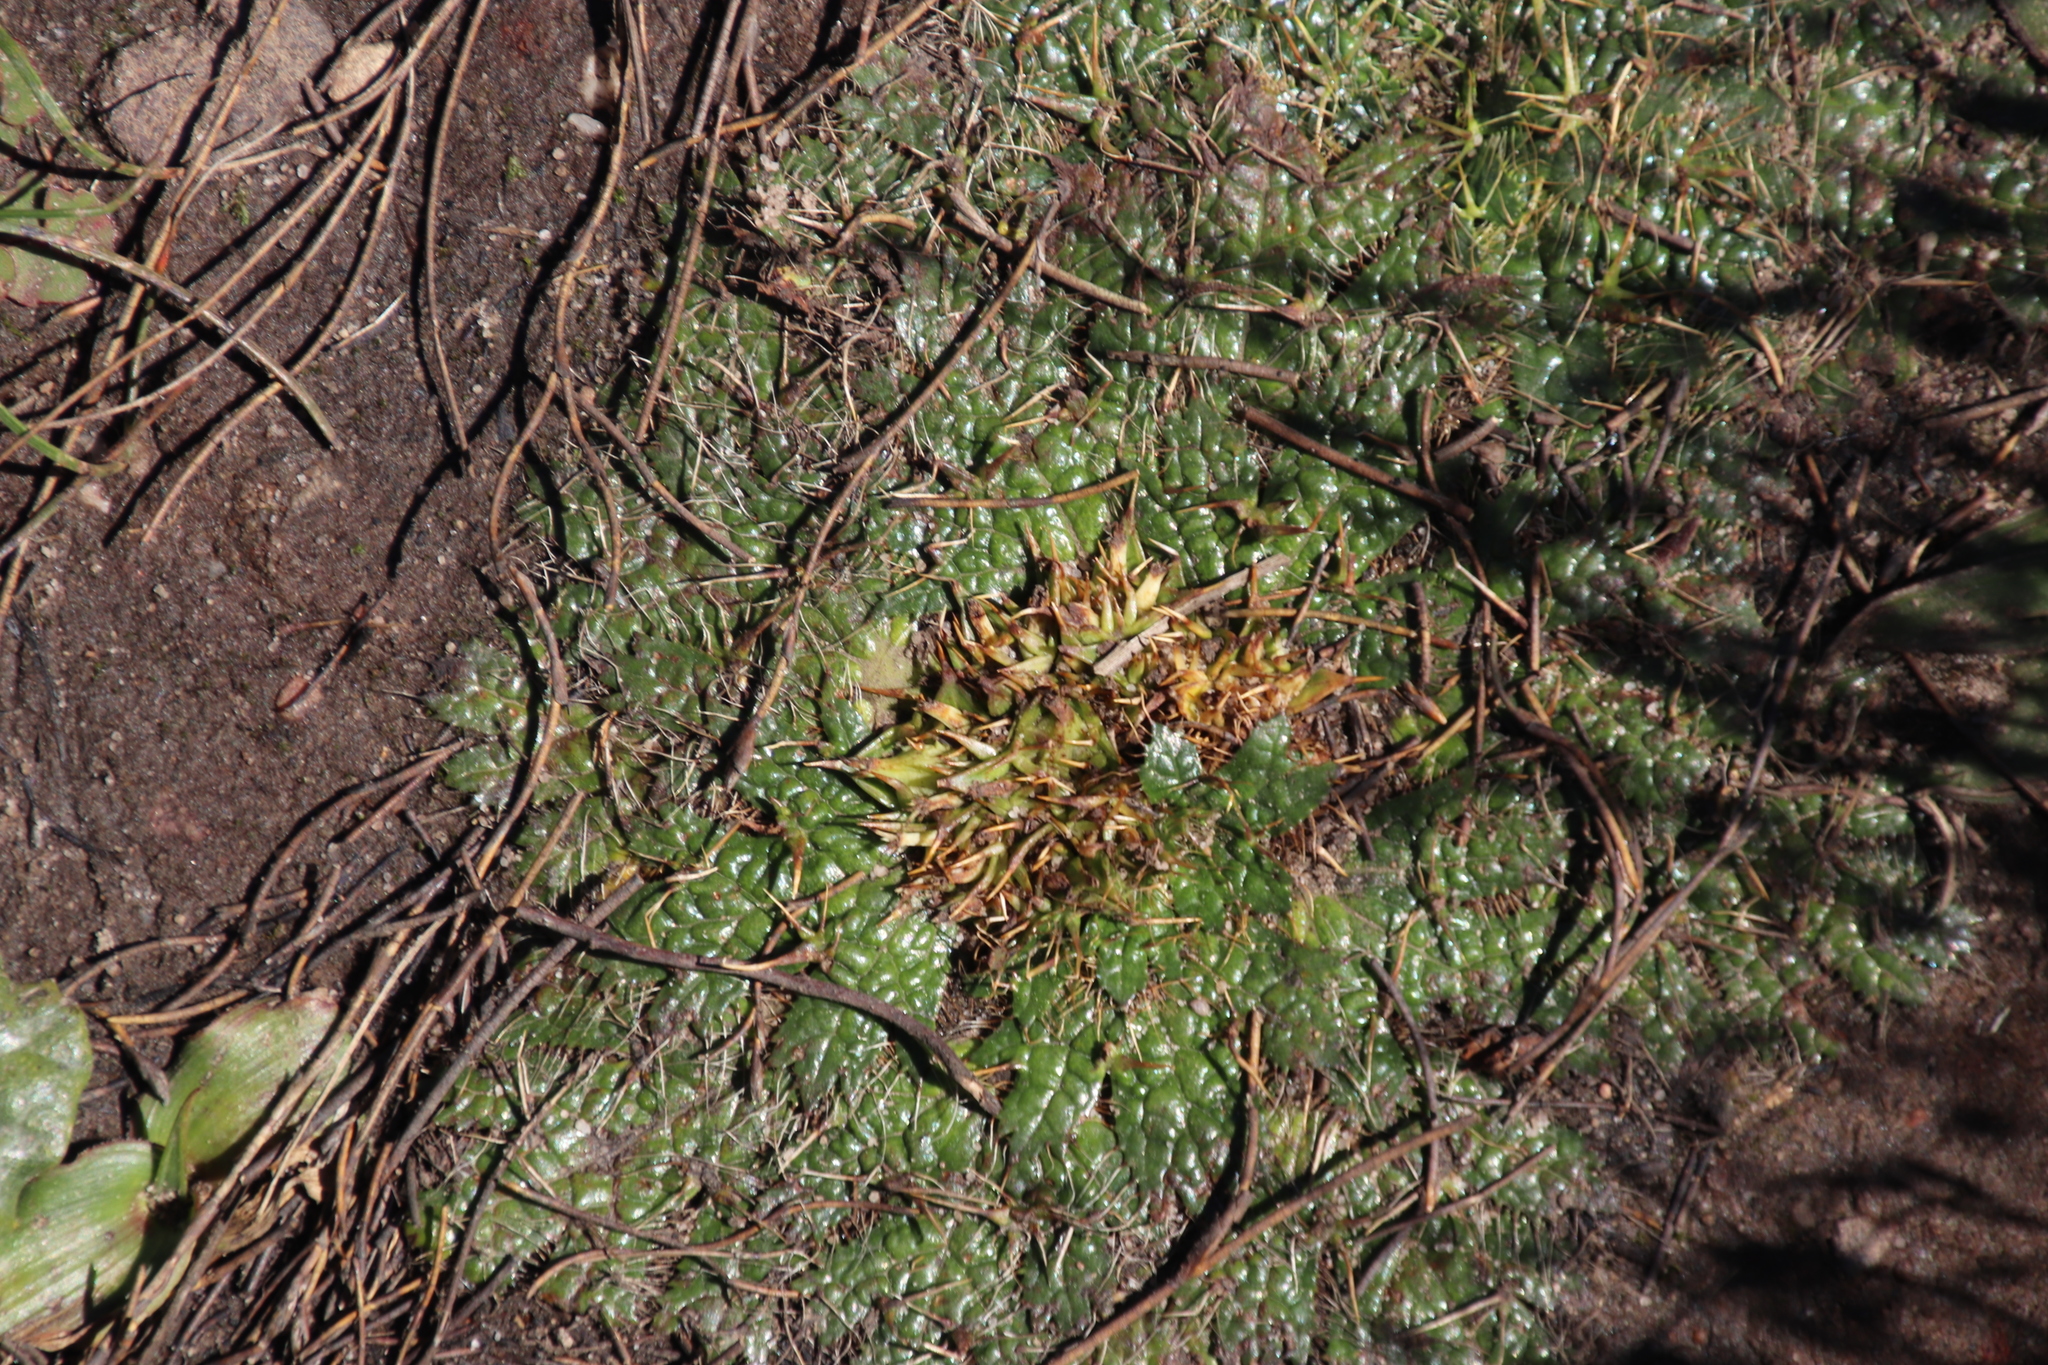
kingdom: Plantae
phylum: Tracheophyta
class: Magnoliopsida
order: Apiales
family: Apiaceae
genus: Arctopus
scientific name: Arctopus echinatus
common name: Platdoring
